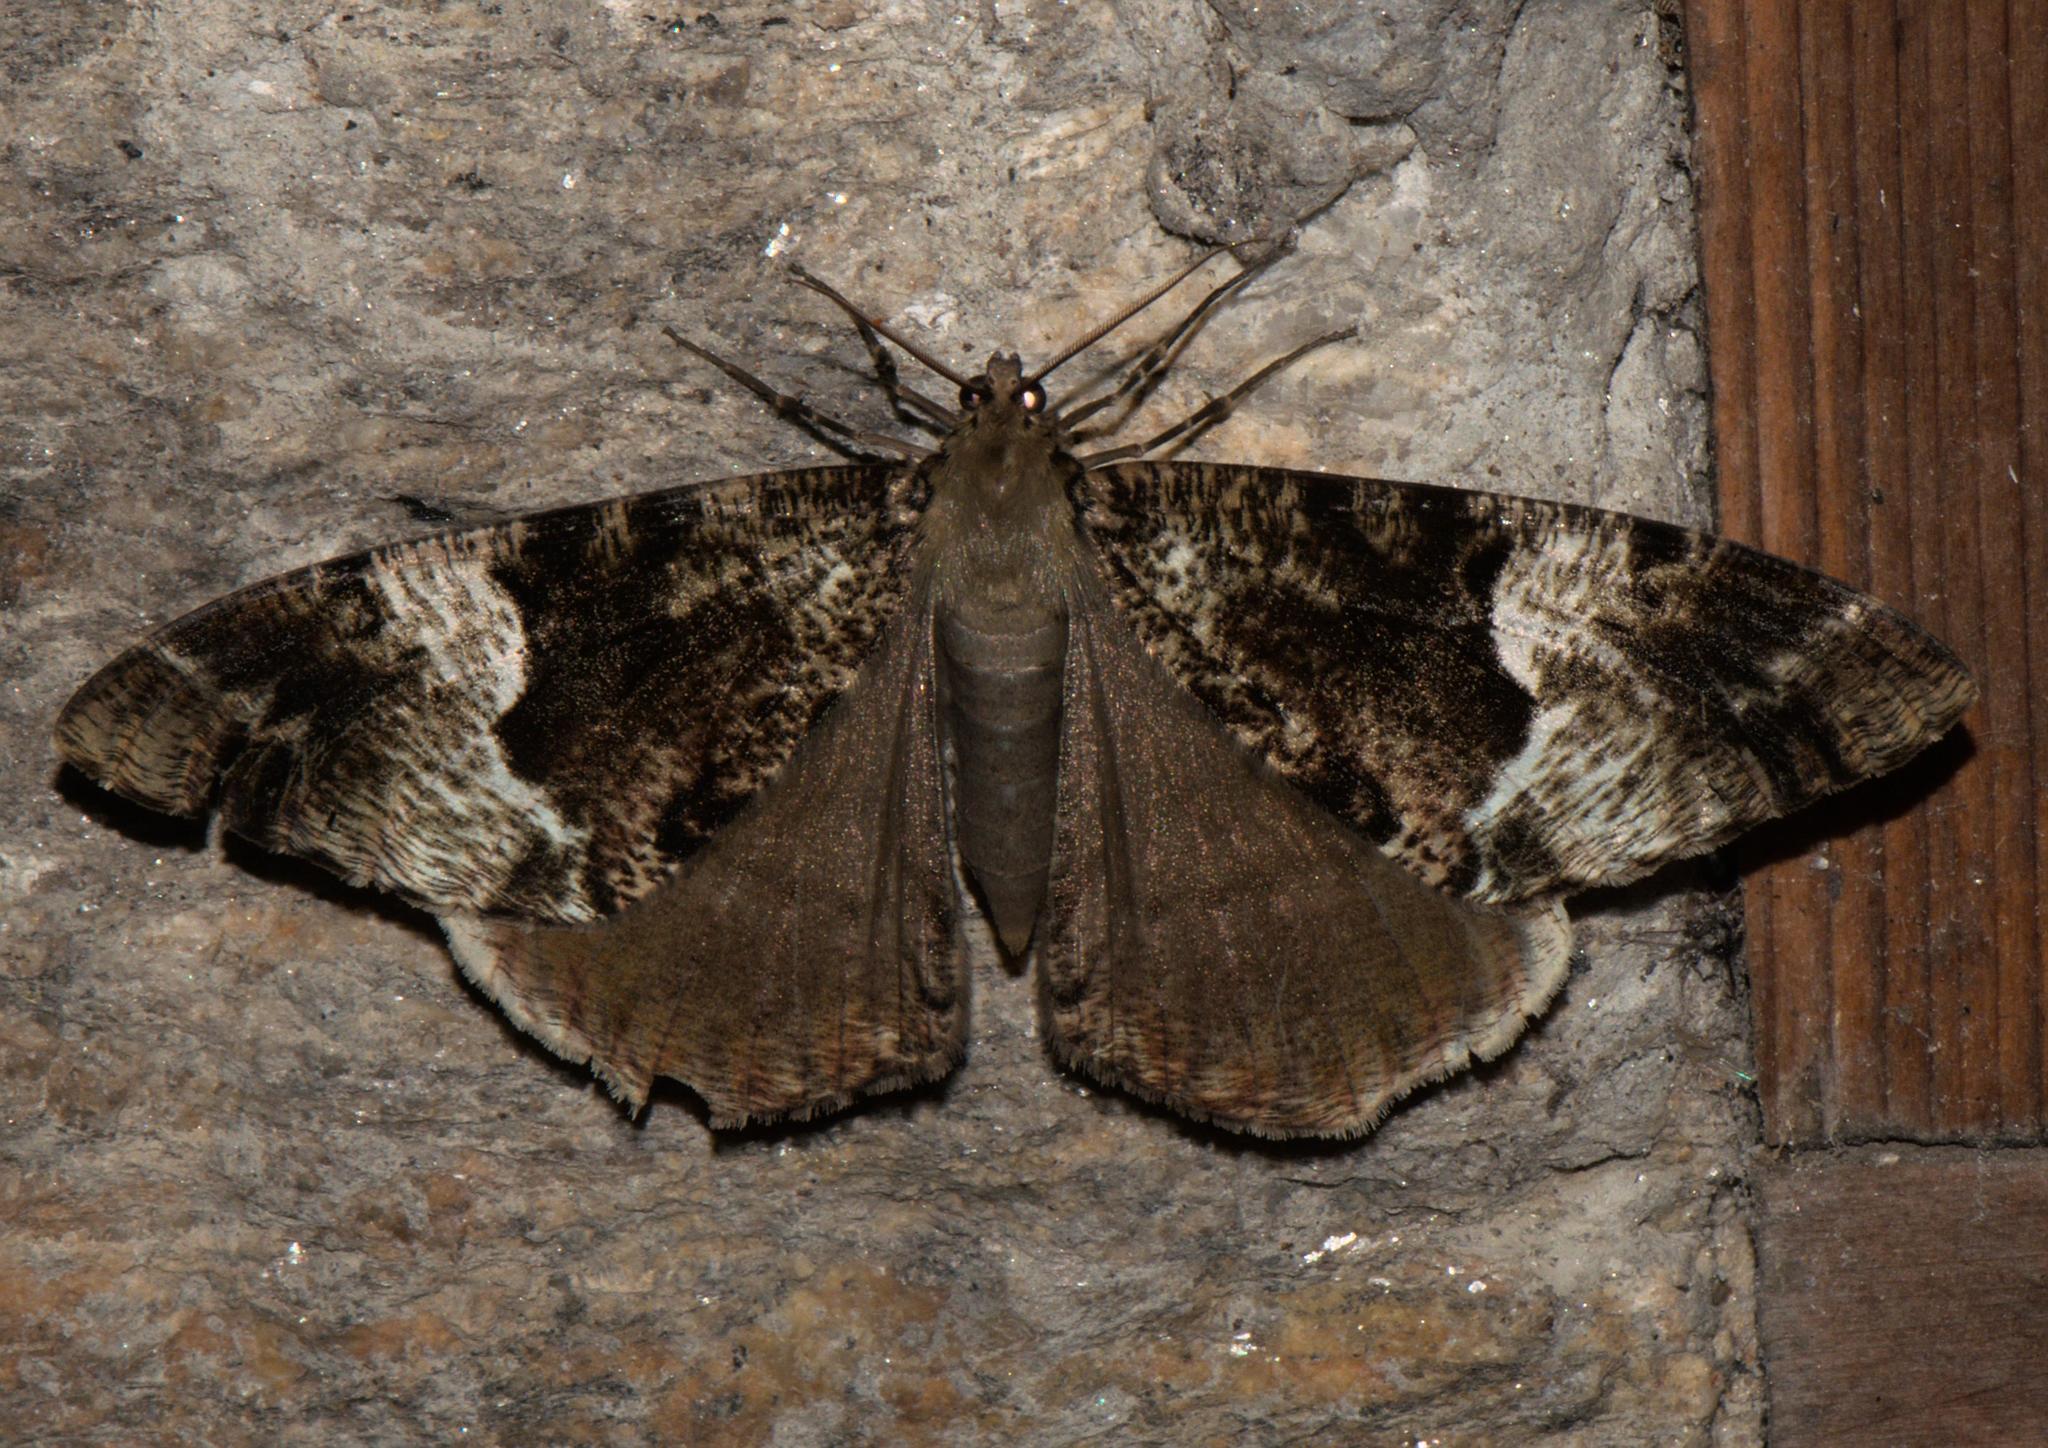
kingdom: Animalia
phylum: Arthropoda
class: Insecta
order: Lepidoptera
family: Geometridae
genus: Xandrames
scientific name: Xandrames dholaria
